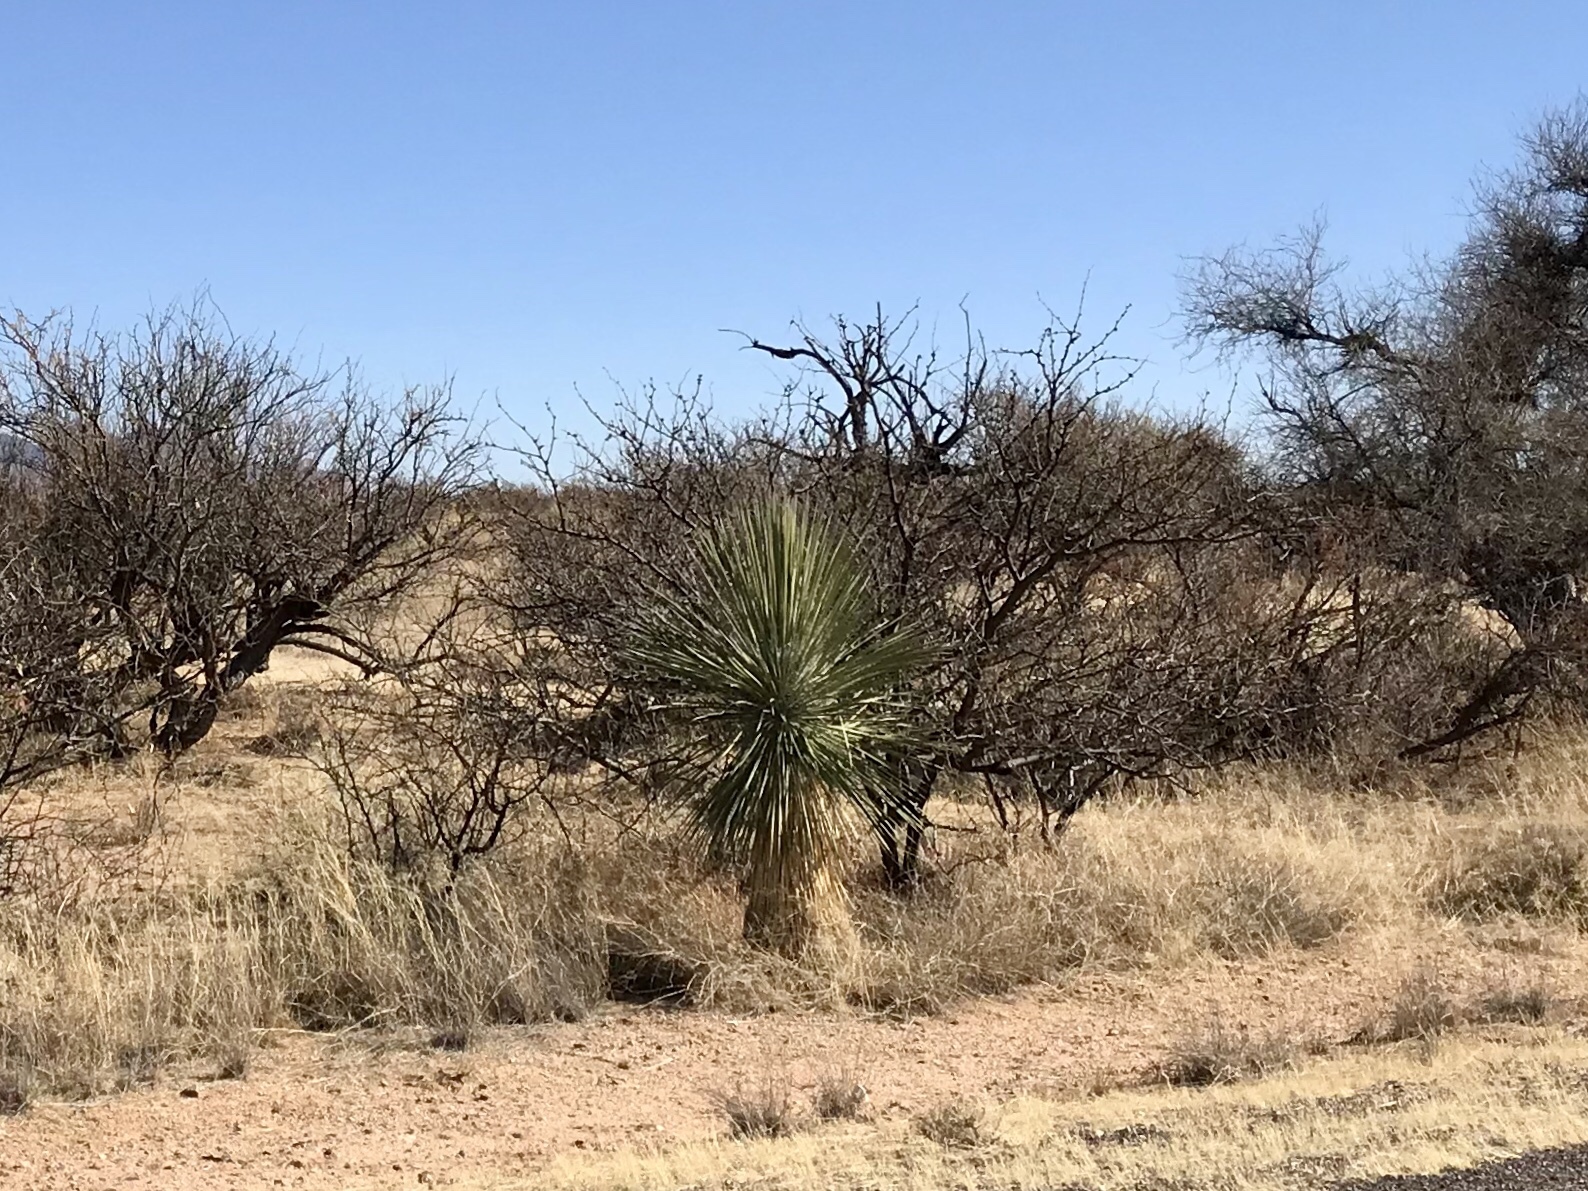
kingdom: Plantae
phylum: Tracheophyta
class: Liliopsida
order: Asparagales
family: Asparagaceae
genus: Yucca
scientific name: Yucca elata
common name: Palmella
